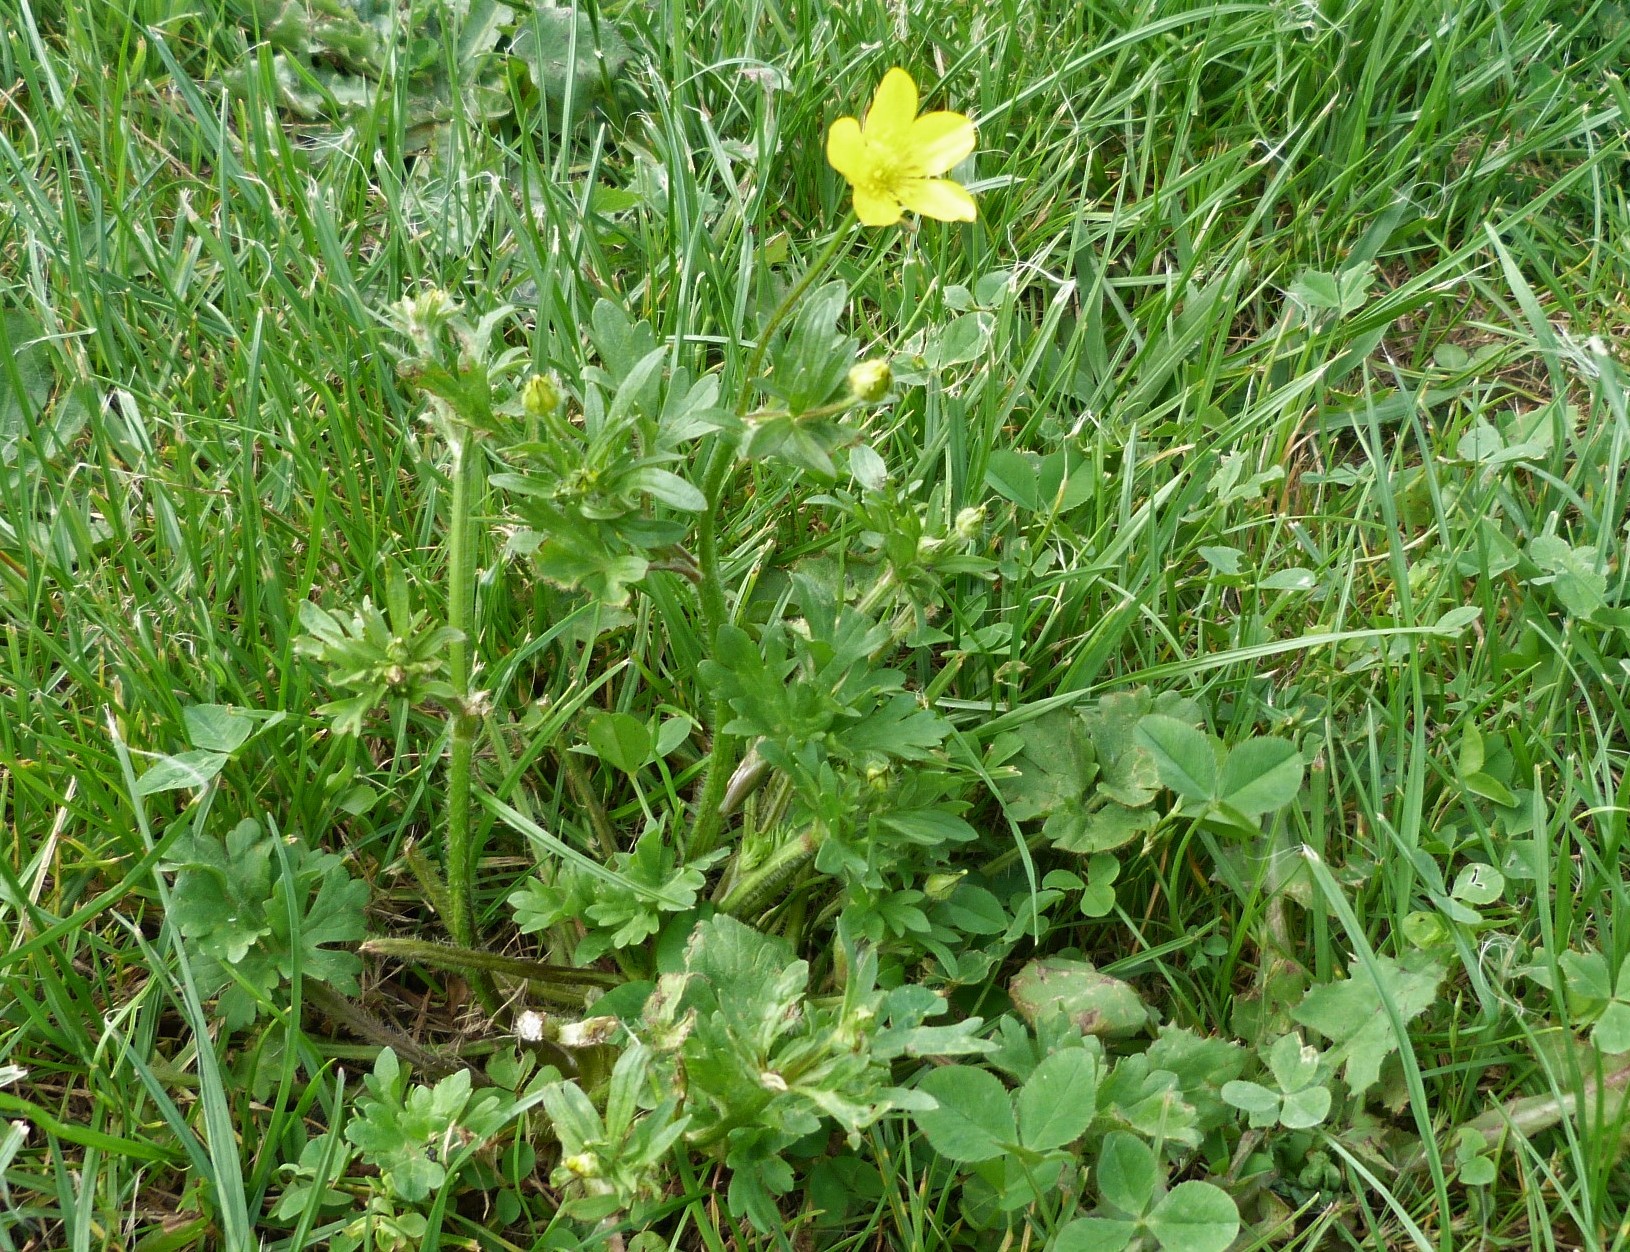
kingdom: Plantae
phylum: Tracheophyta
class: Magnoliopsida
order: Ranunculales
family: Ranunculaceae
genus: Ranunculus
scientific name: Ranunculus sardous
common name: Hairy buttercup
